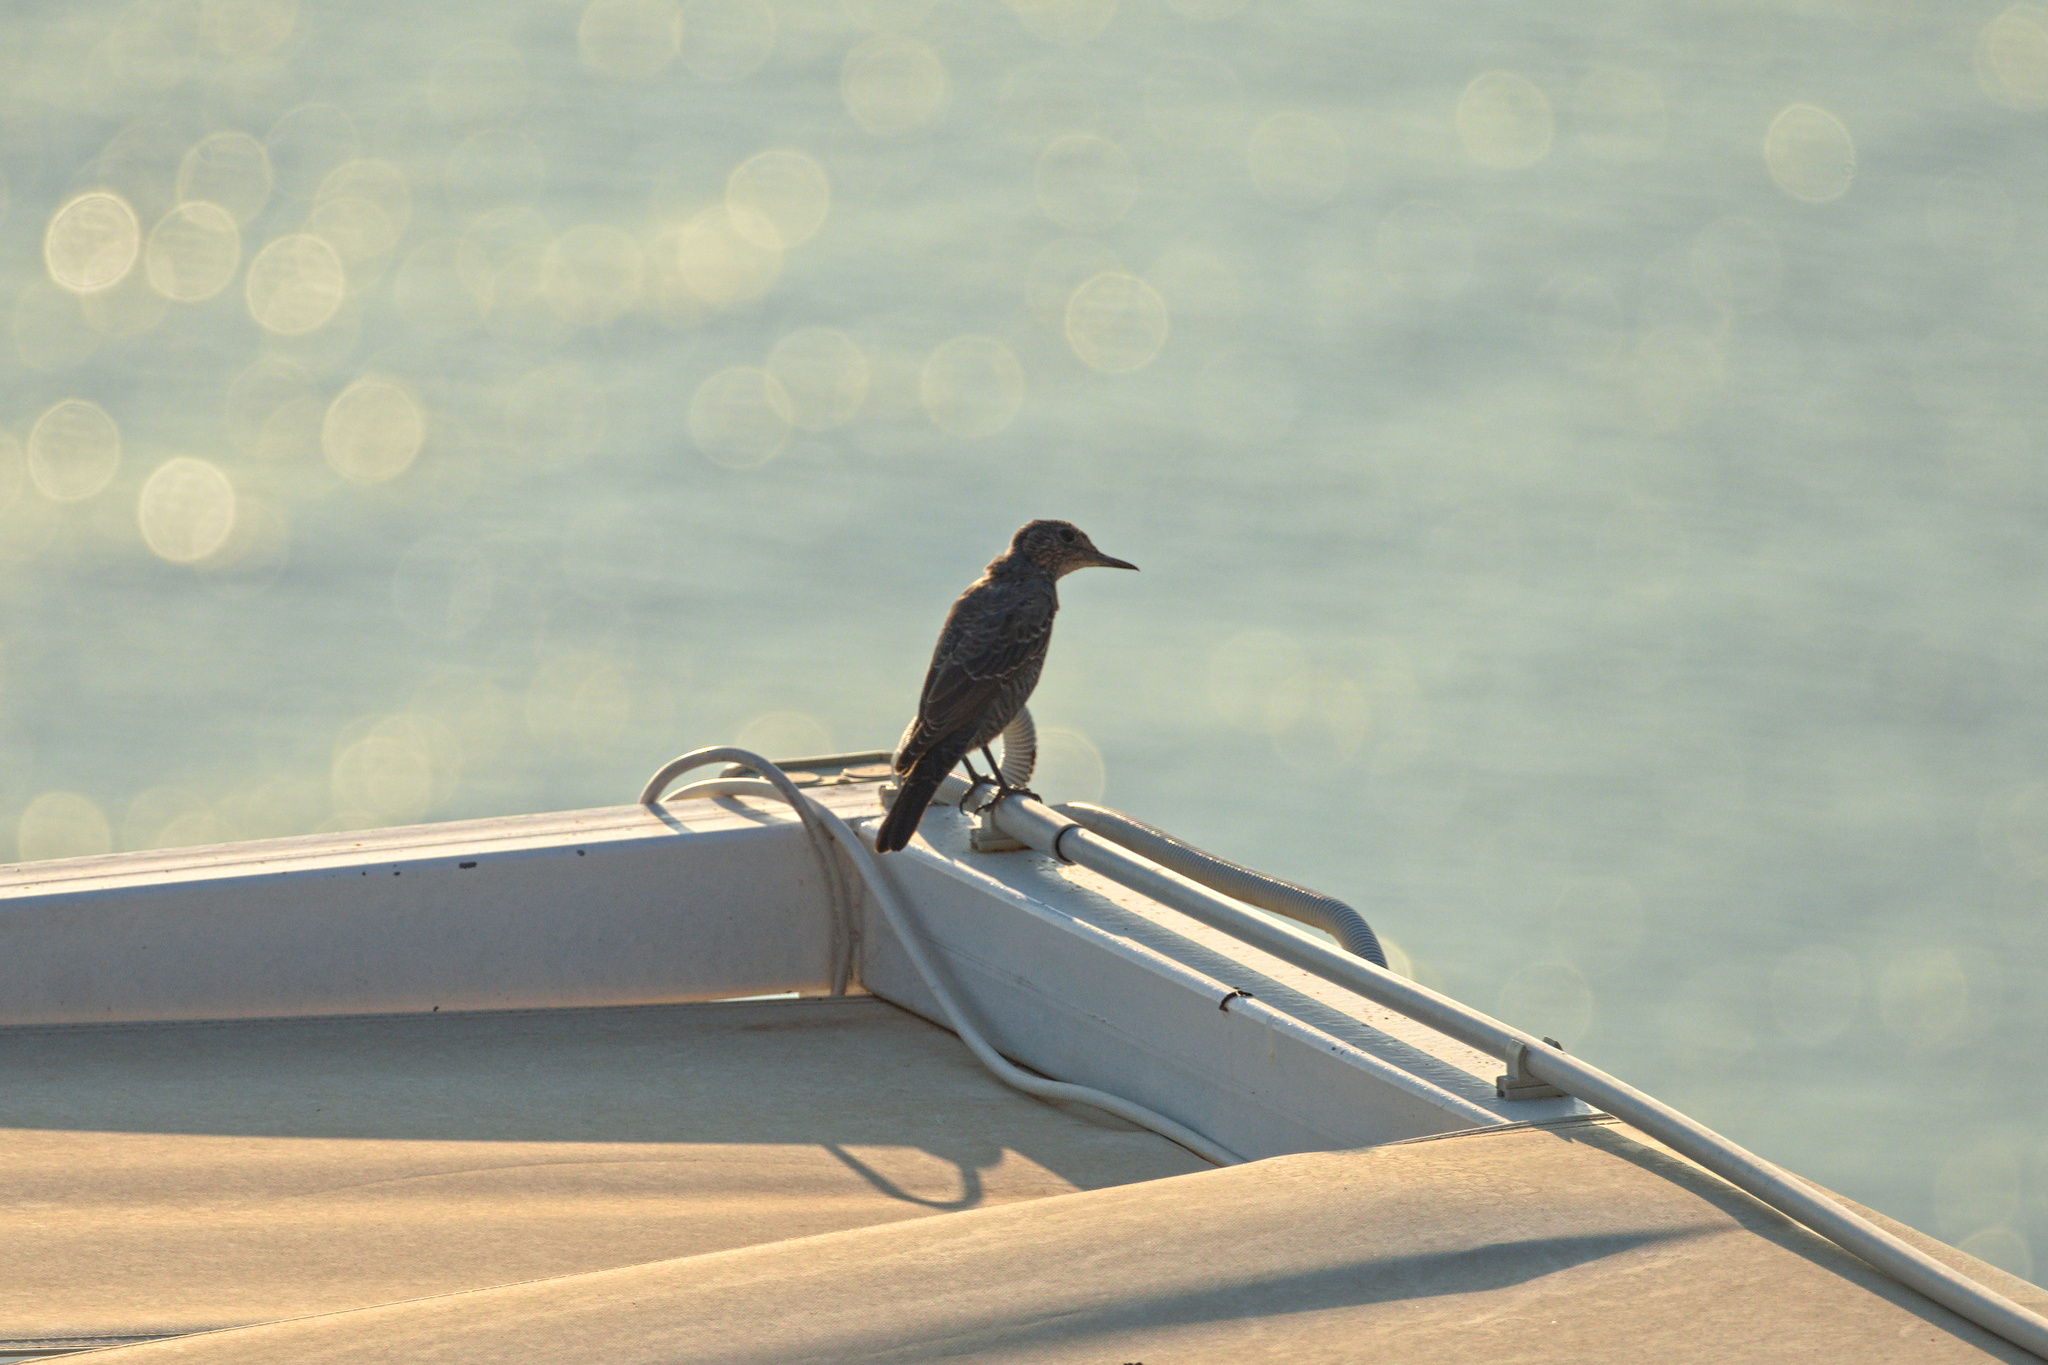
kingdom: Animalia
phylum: Chordata
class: Aves
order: Passeriformes
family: Muscicapidae
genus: Monticola
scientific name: Monticola solitarius
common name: Blue rock thrush
